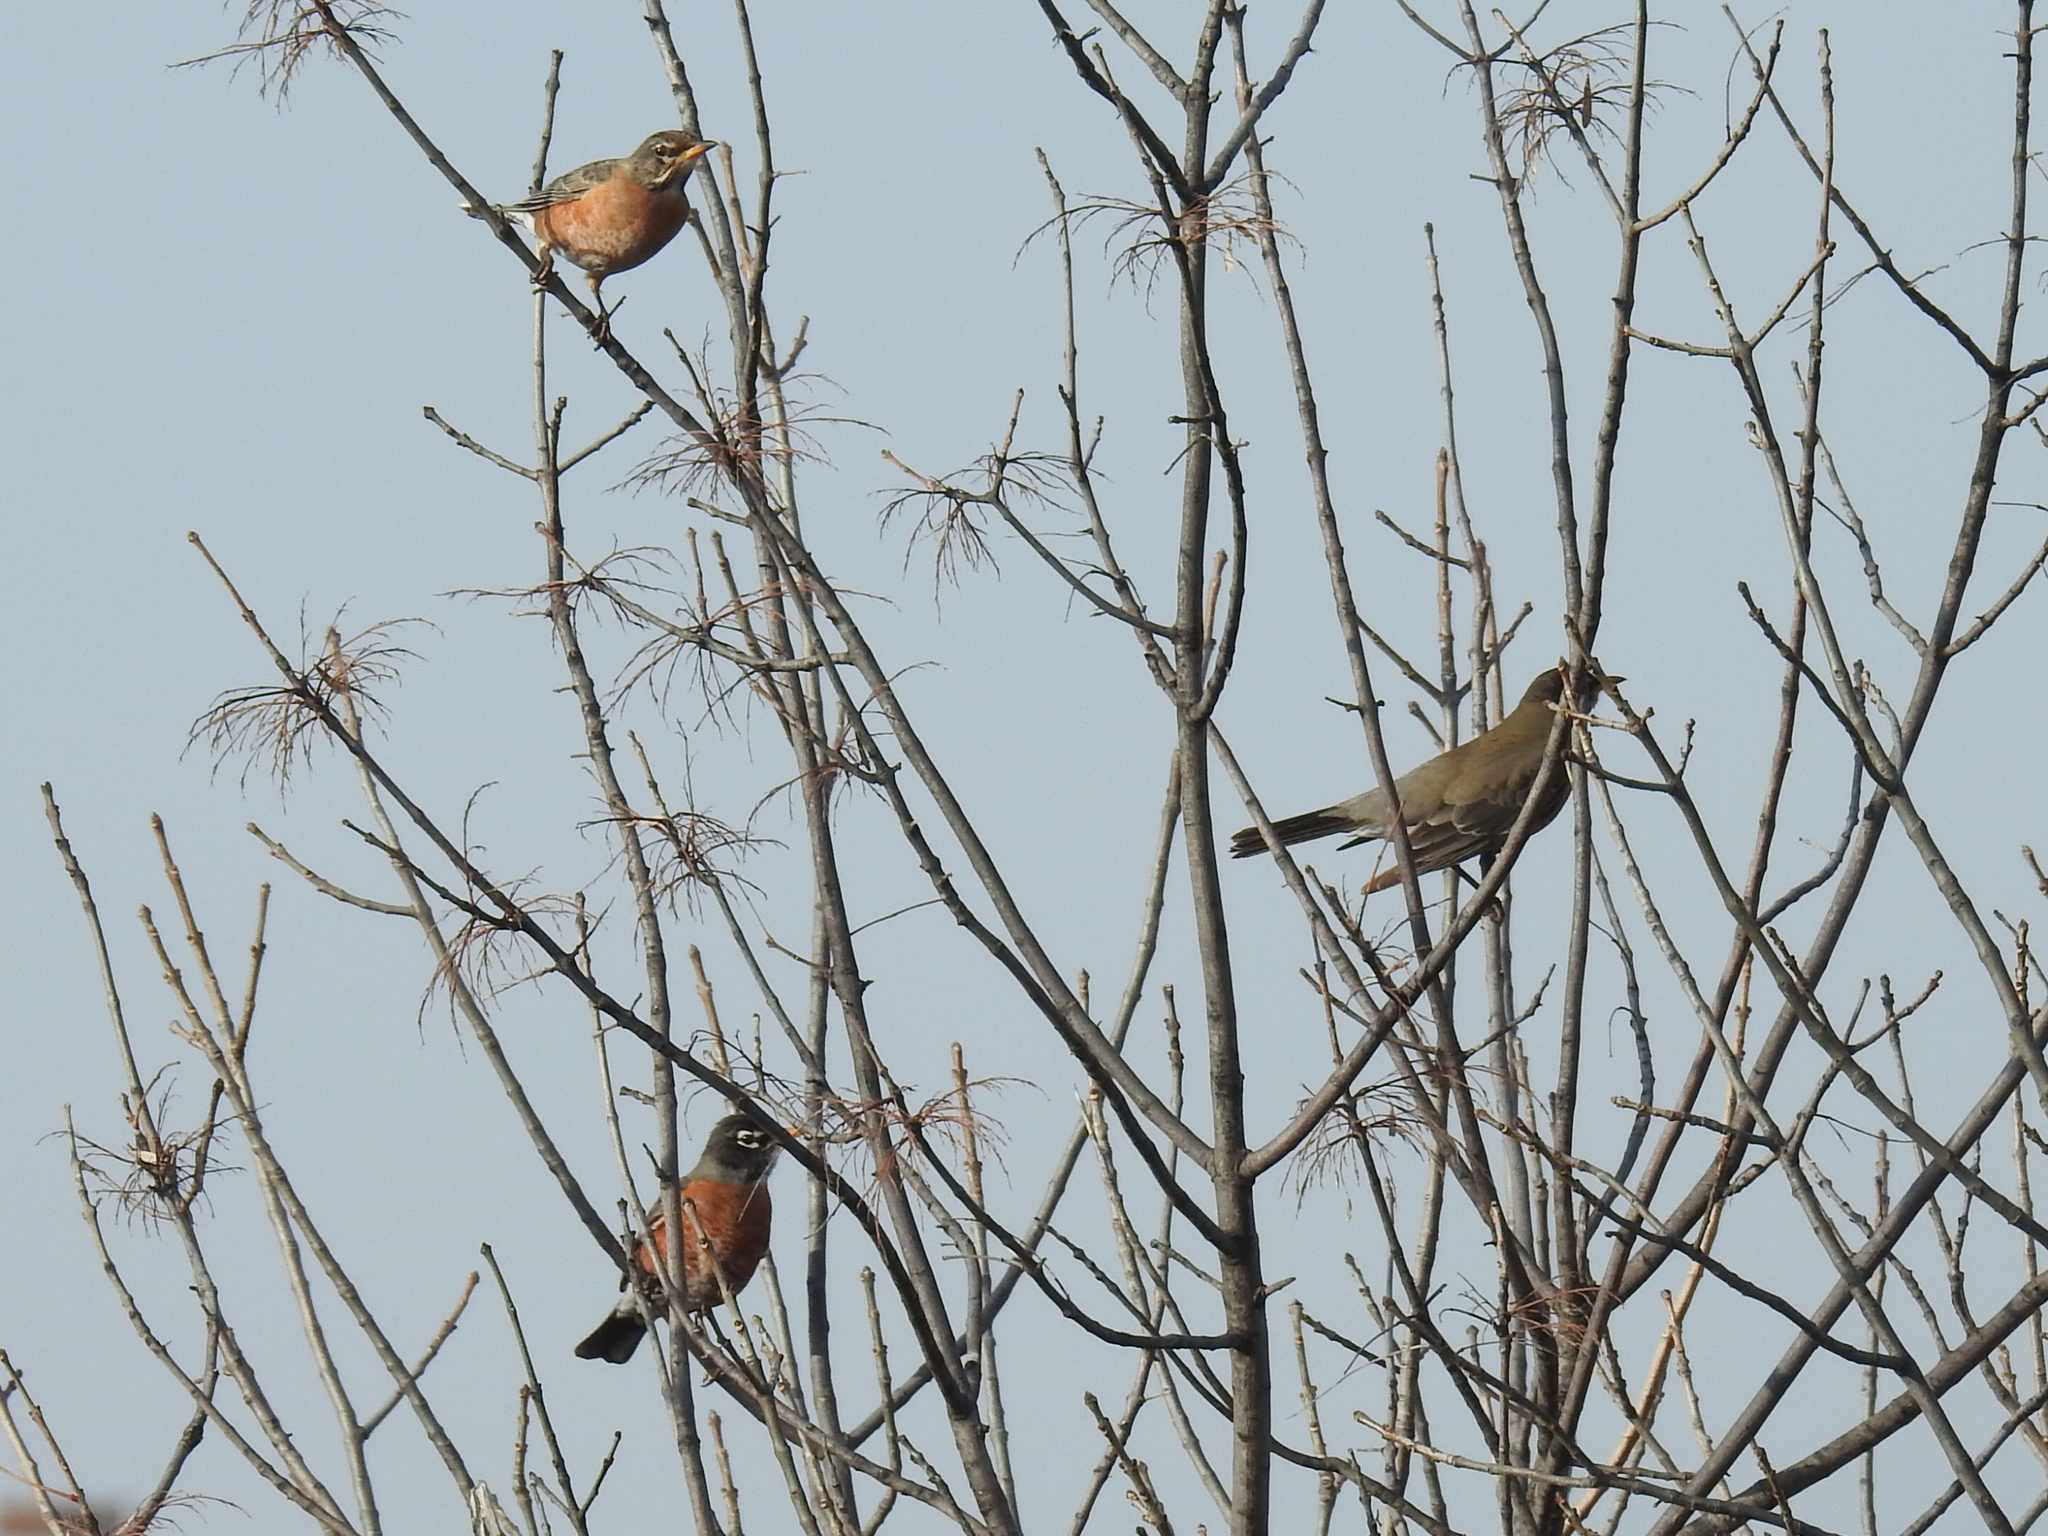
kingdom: Animalia
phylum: Chordata
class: Aves
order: Passeriformes
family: Turdidae
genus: Turdus
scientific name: Turdus migratorius
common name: American robin
